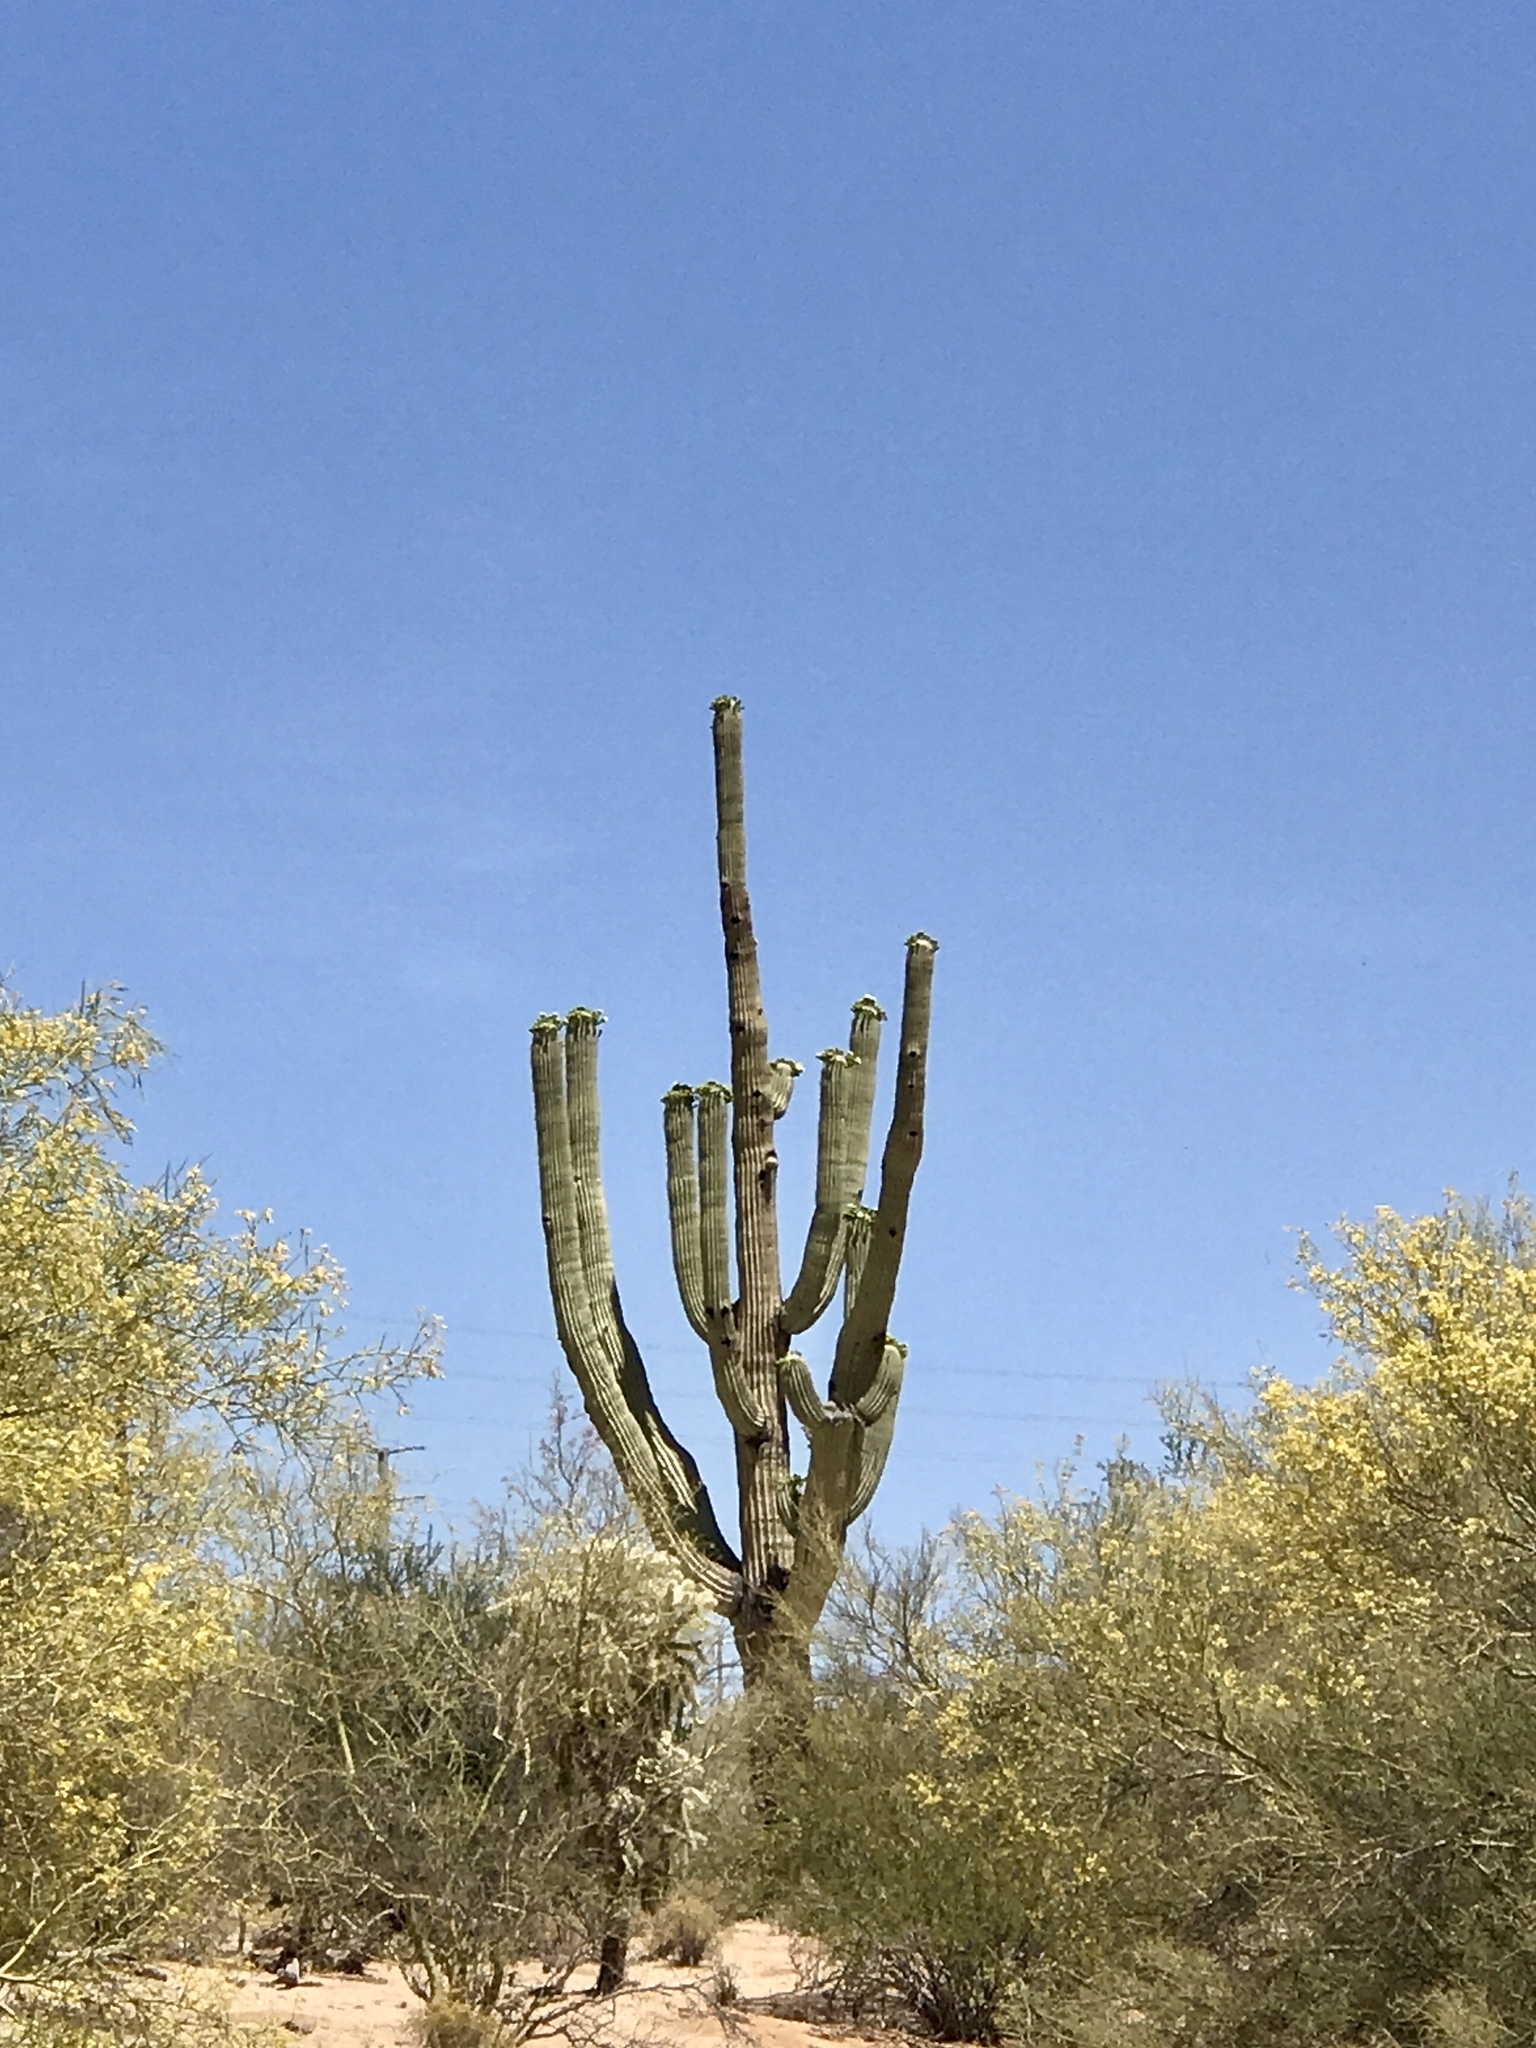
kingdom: Plantae
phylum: Tracheophyta
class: Magnoliopsida
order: Caryophyllales
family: Cactaceae
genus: Carnegiea
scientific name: Carnegiea gigantea
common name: Saguaro
